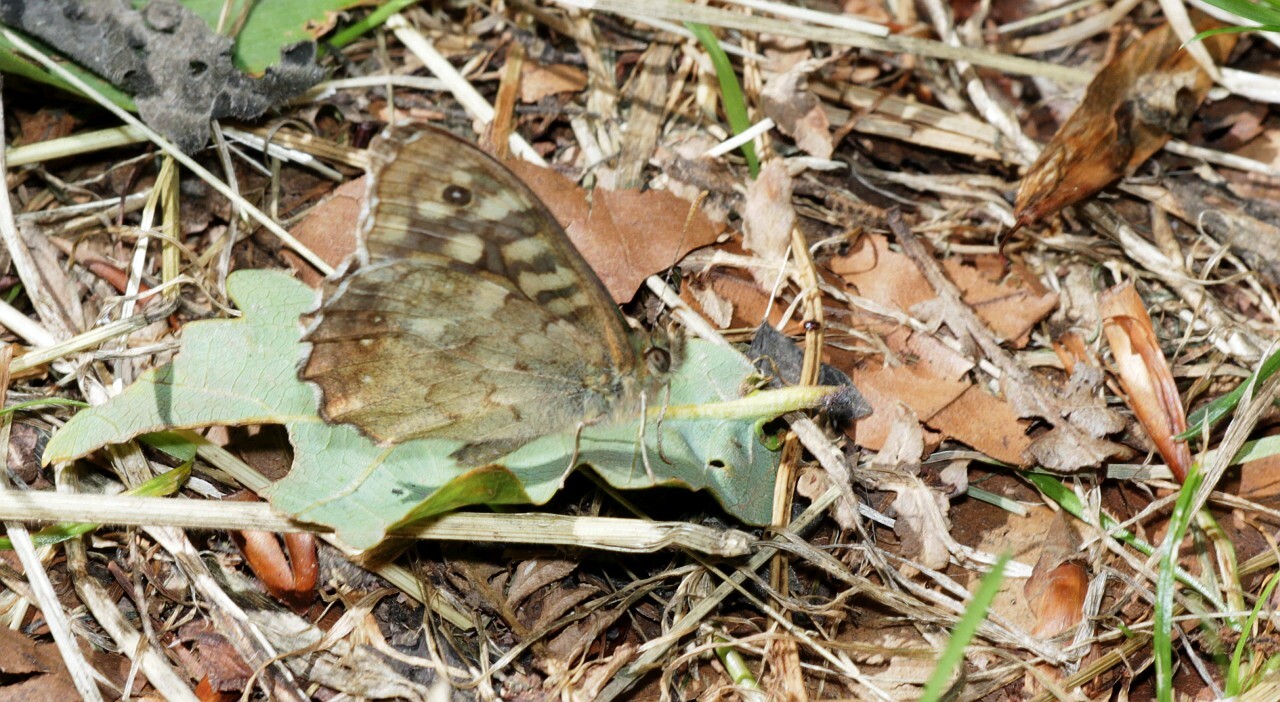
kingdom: Animalia
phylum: Arthropoda
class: Insecta
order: Lepidoptera
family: Nymphalidae
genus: Pararge
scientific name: Pararge aegeria
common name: Speckled wood
